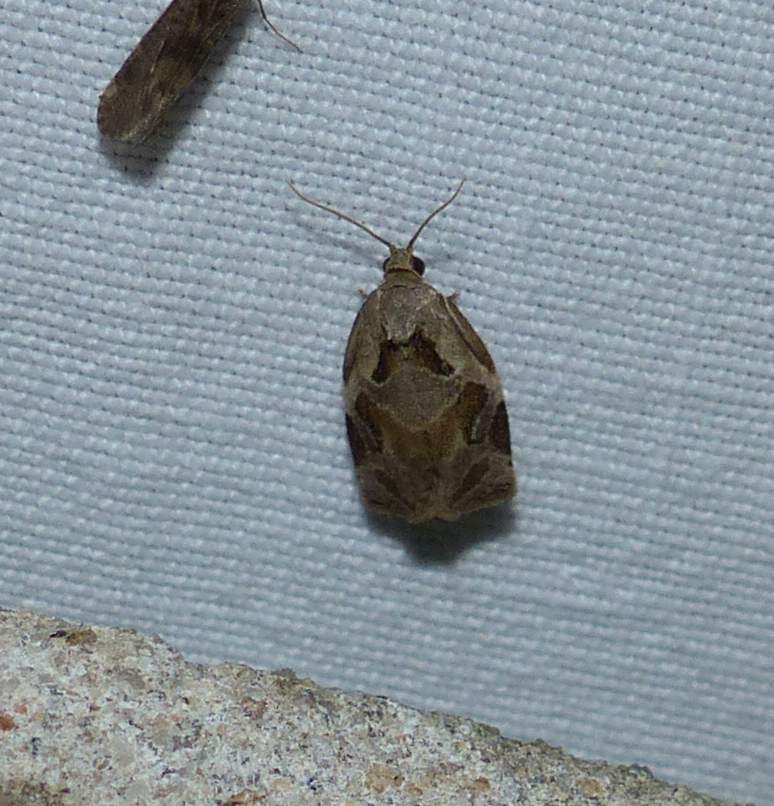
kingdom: Animalia
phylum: Arthropoda
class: Insecta
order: Lepidoptera
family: Tortricidae
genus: Archips
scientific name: Archips grisea
